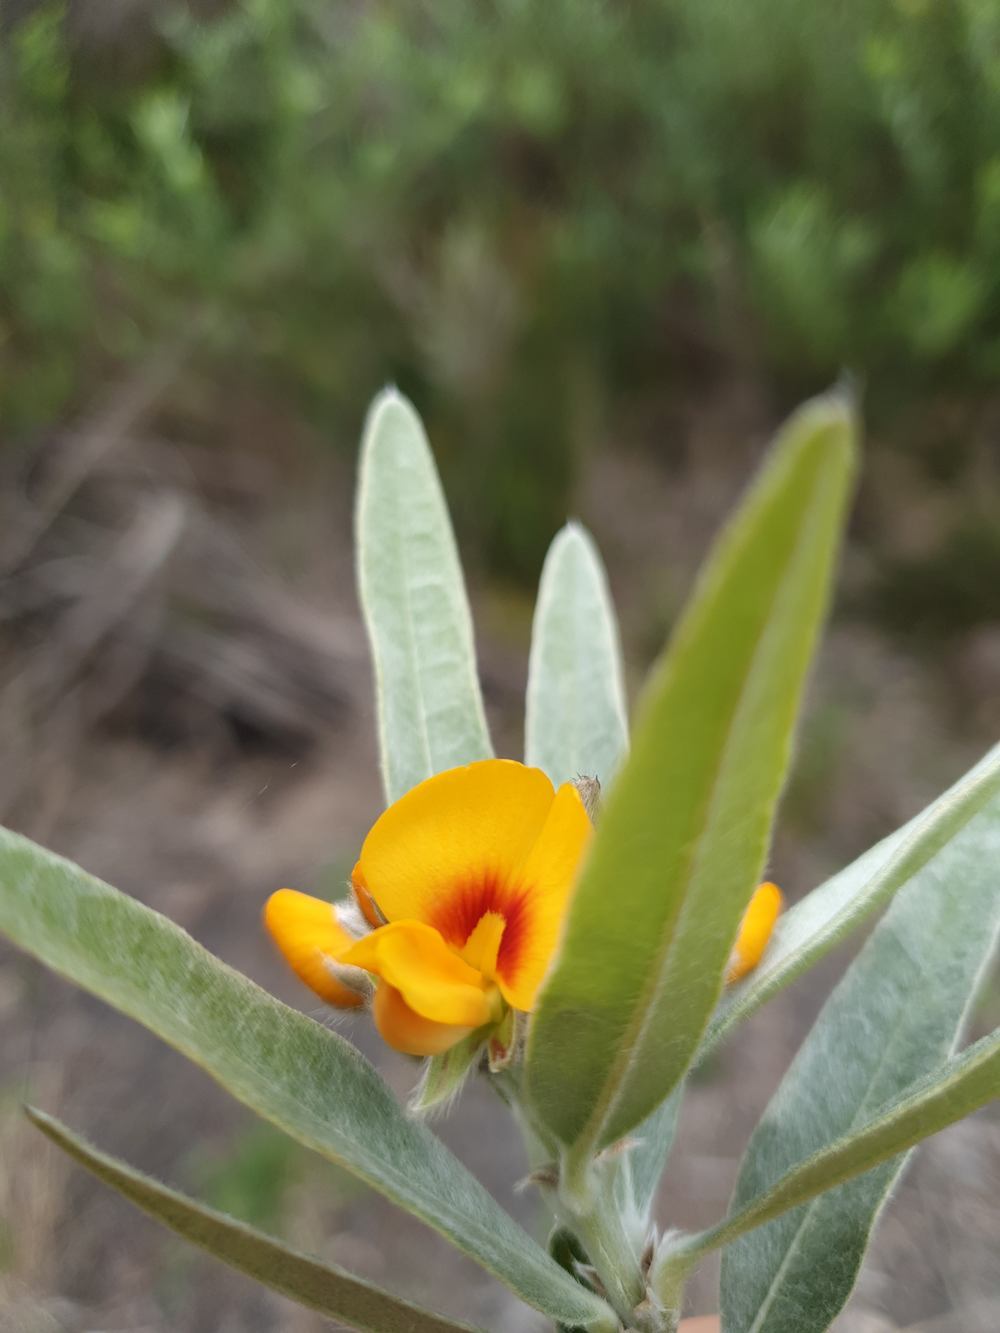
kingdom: Plantae
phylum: Tracheophyta
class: Magnoliopsida
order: Fabales
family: Fabaceae
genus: Callistachys
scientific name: Callistachys lanceolata
